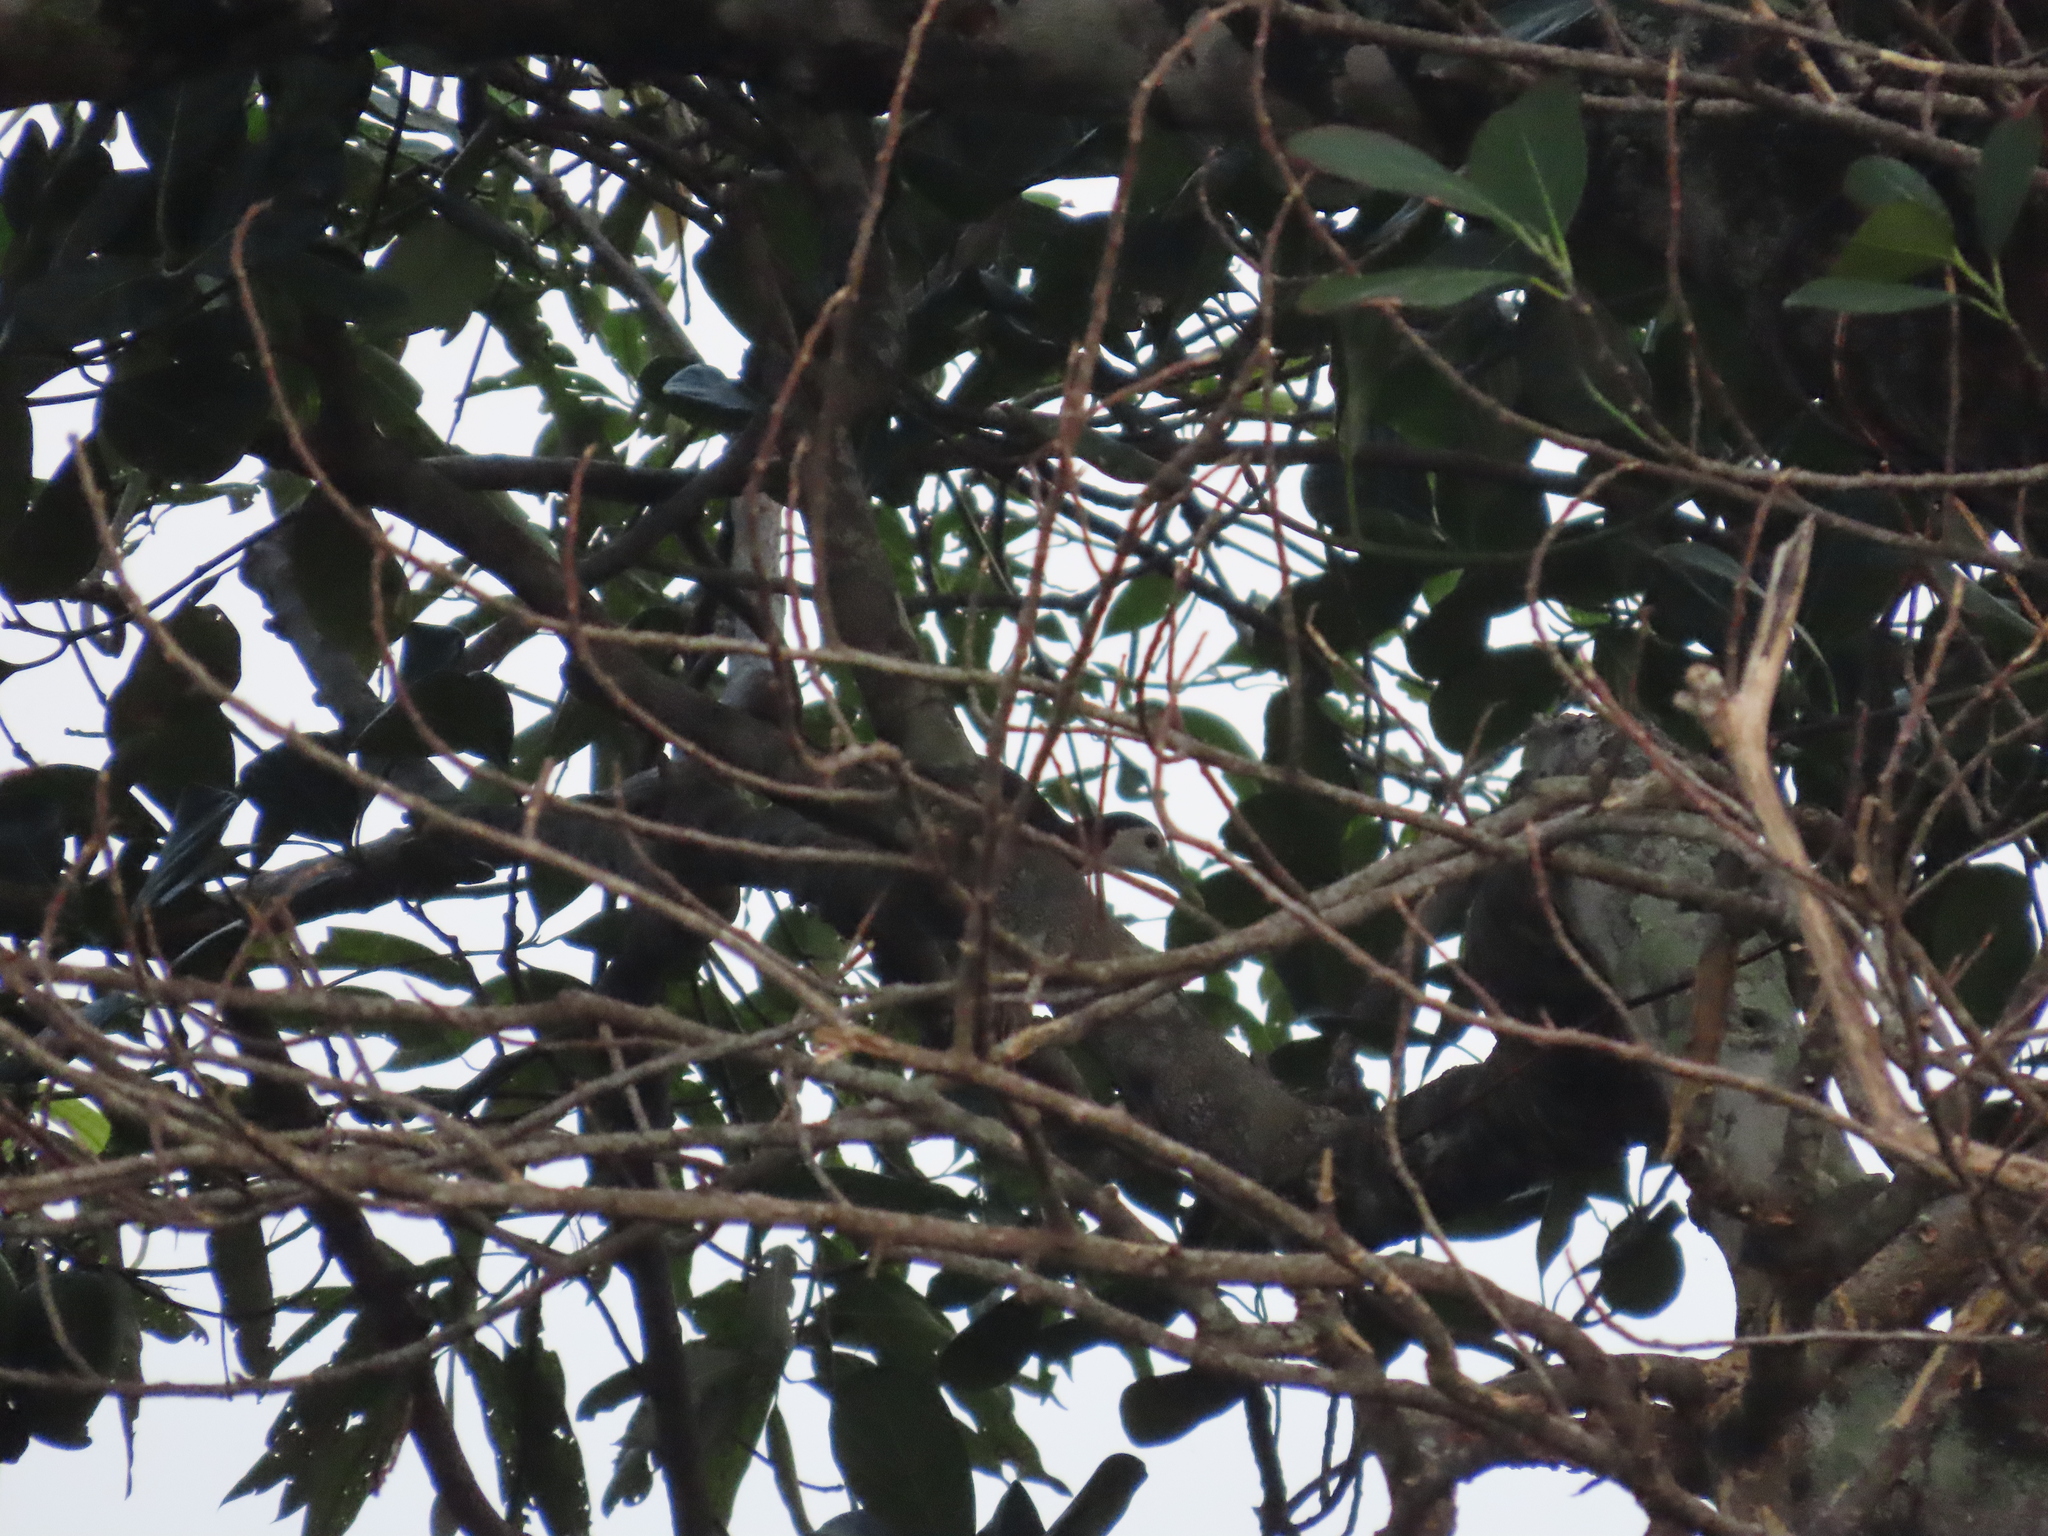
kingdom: Animalia
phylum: Chordata
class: Aves
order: Gruiformes
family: Rallidae
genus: Amaurornis
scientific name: Amaurornis phoenicurus
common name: White-breasted waterhen
